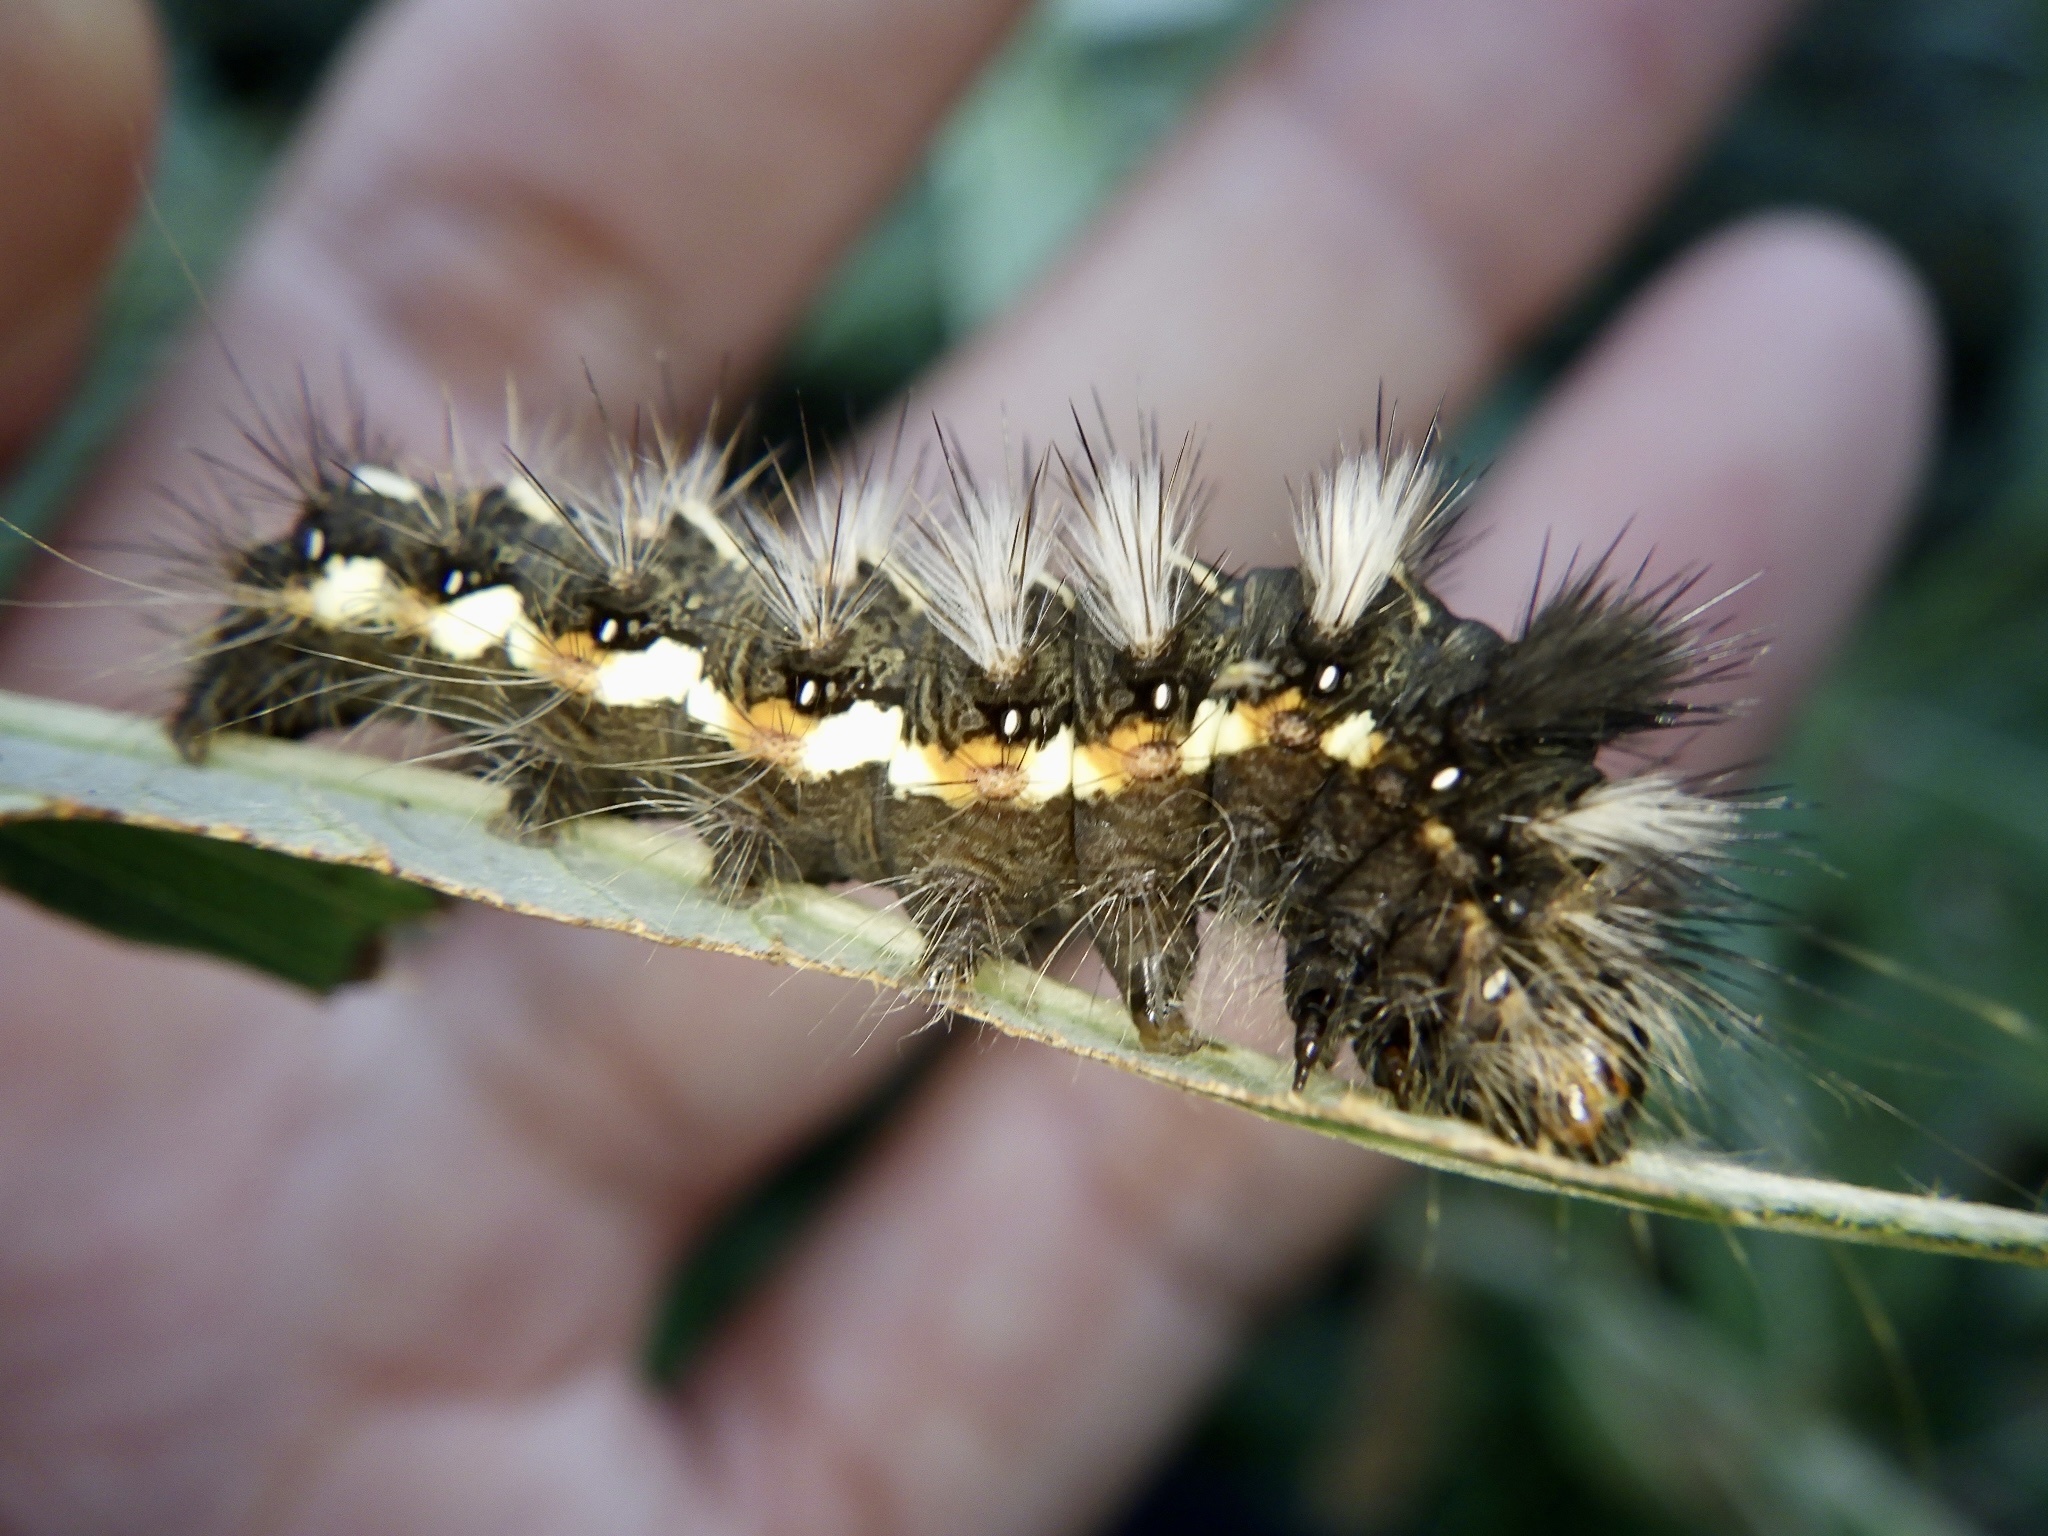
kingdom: Animalia
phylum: Arthropoda
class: Insecta
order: Lepidoptera
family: Noctuidae
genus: Acronicta
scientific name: Acronicta rumicis
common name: Knot grass
